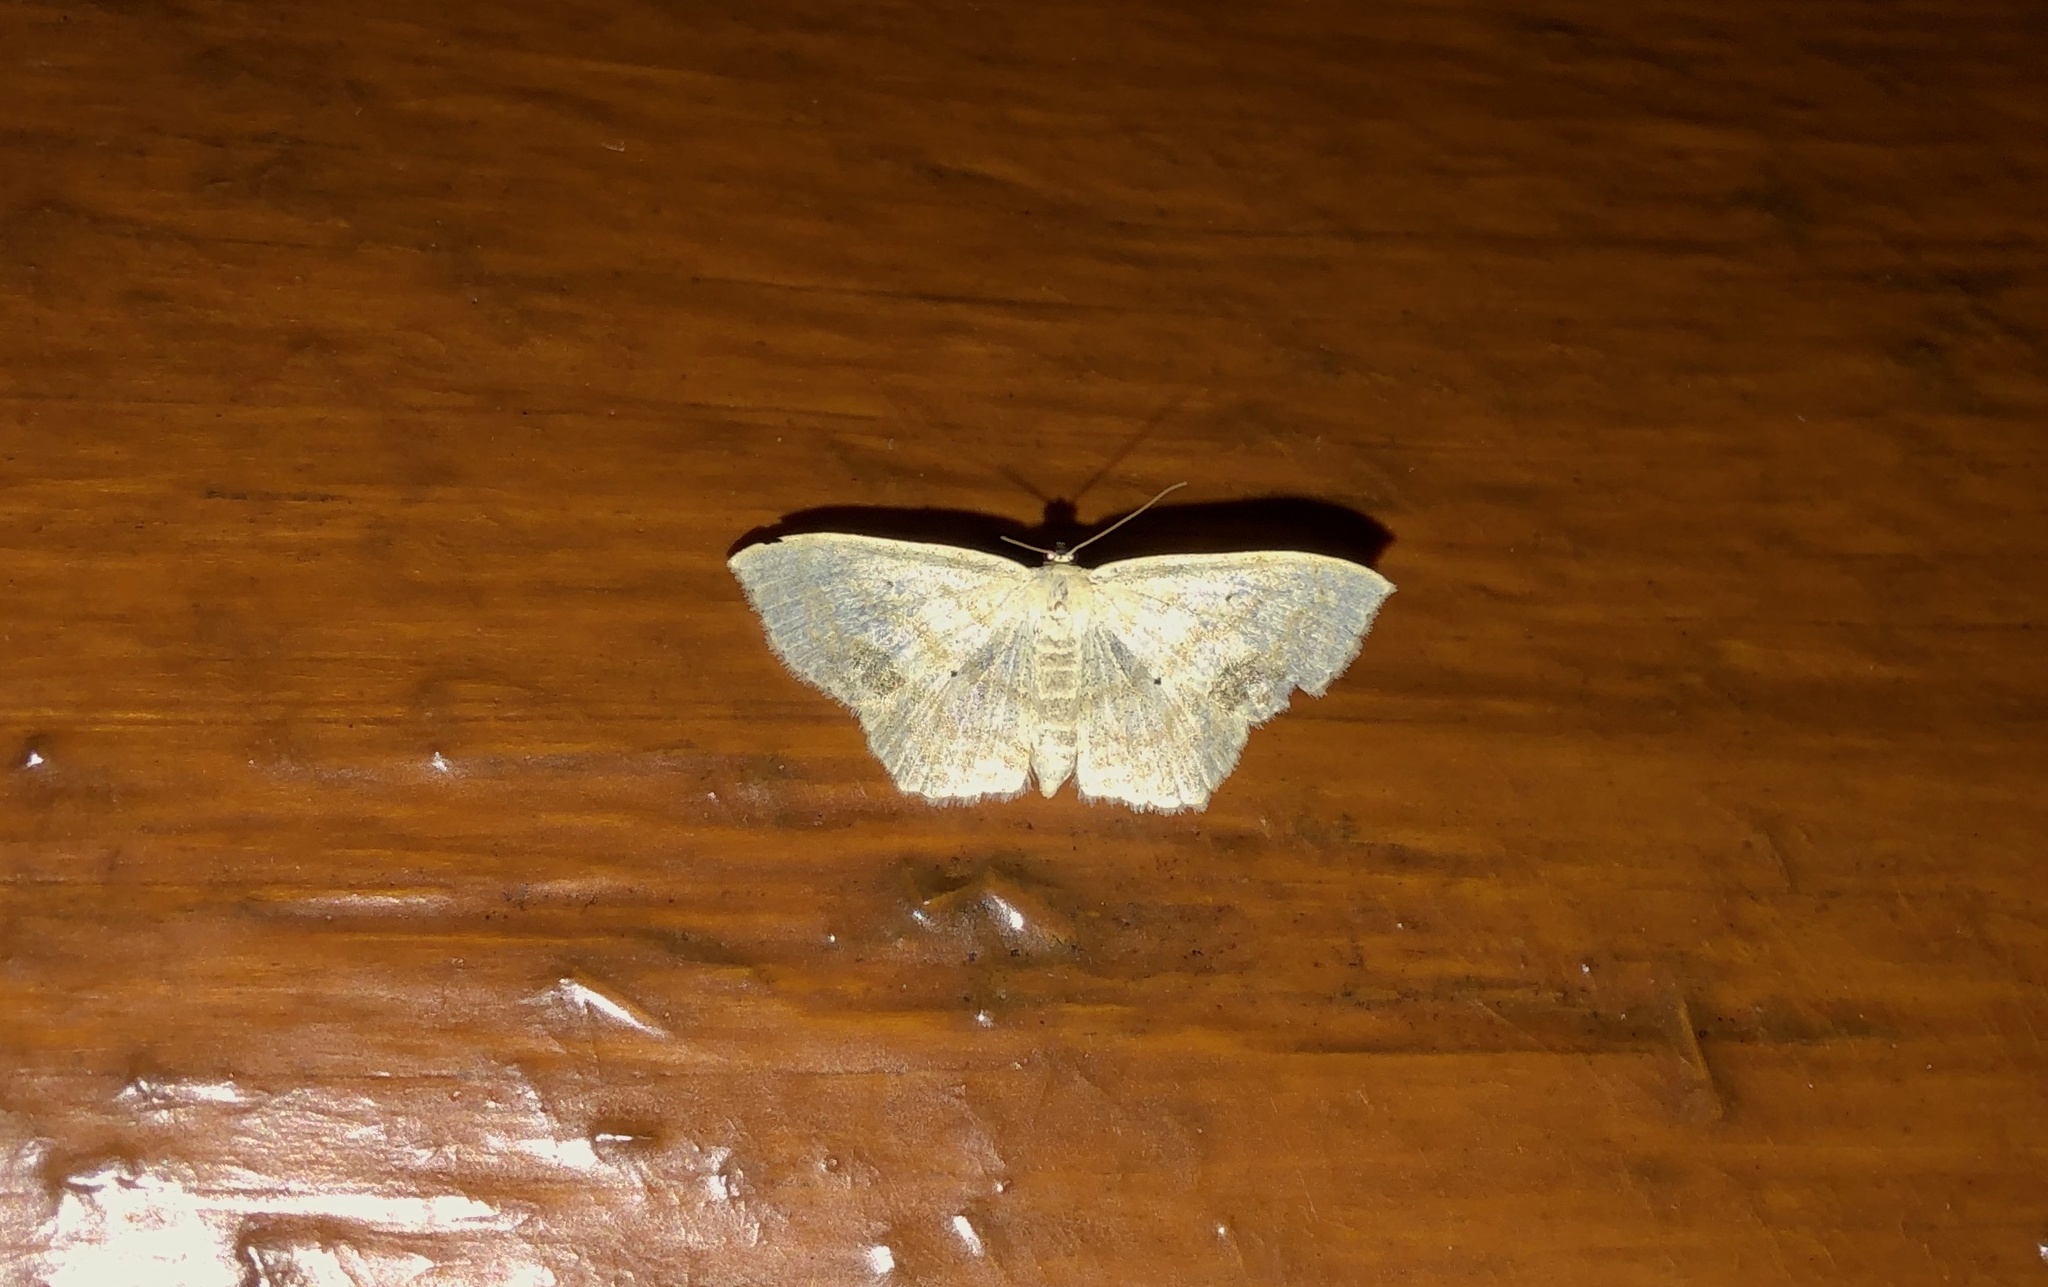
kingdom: Animalia
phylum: Arthropoda
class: Insecta
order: Lepidoptera
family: Geometridae
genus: Scopula
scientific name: Scopula limboundata
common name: Large lace border
